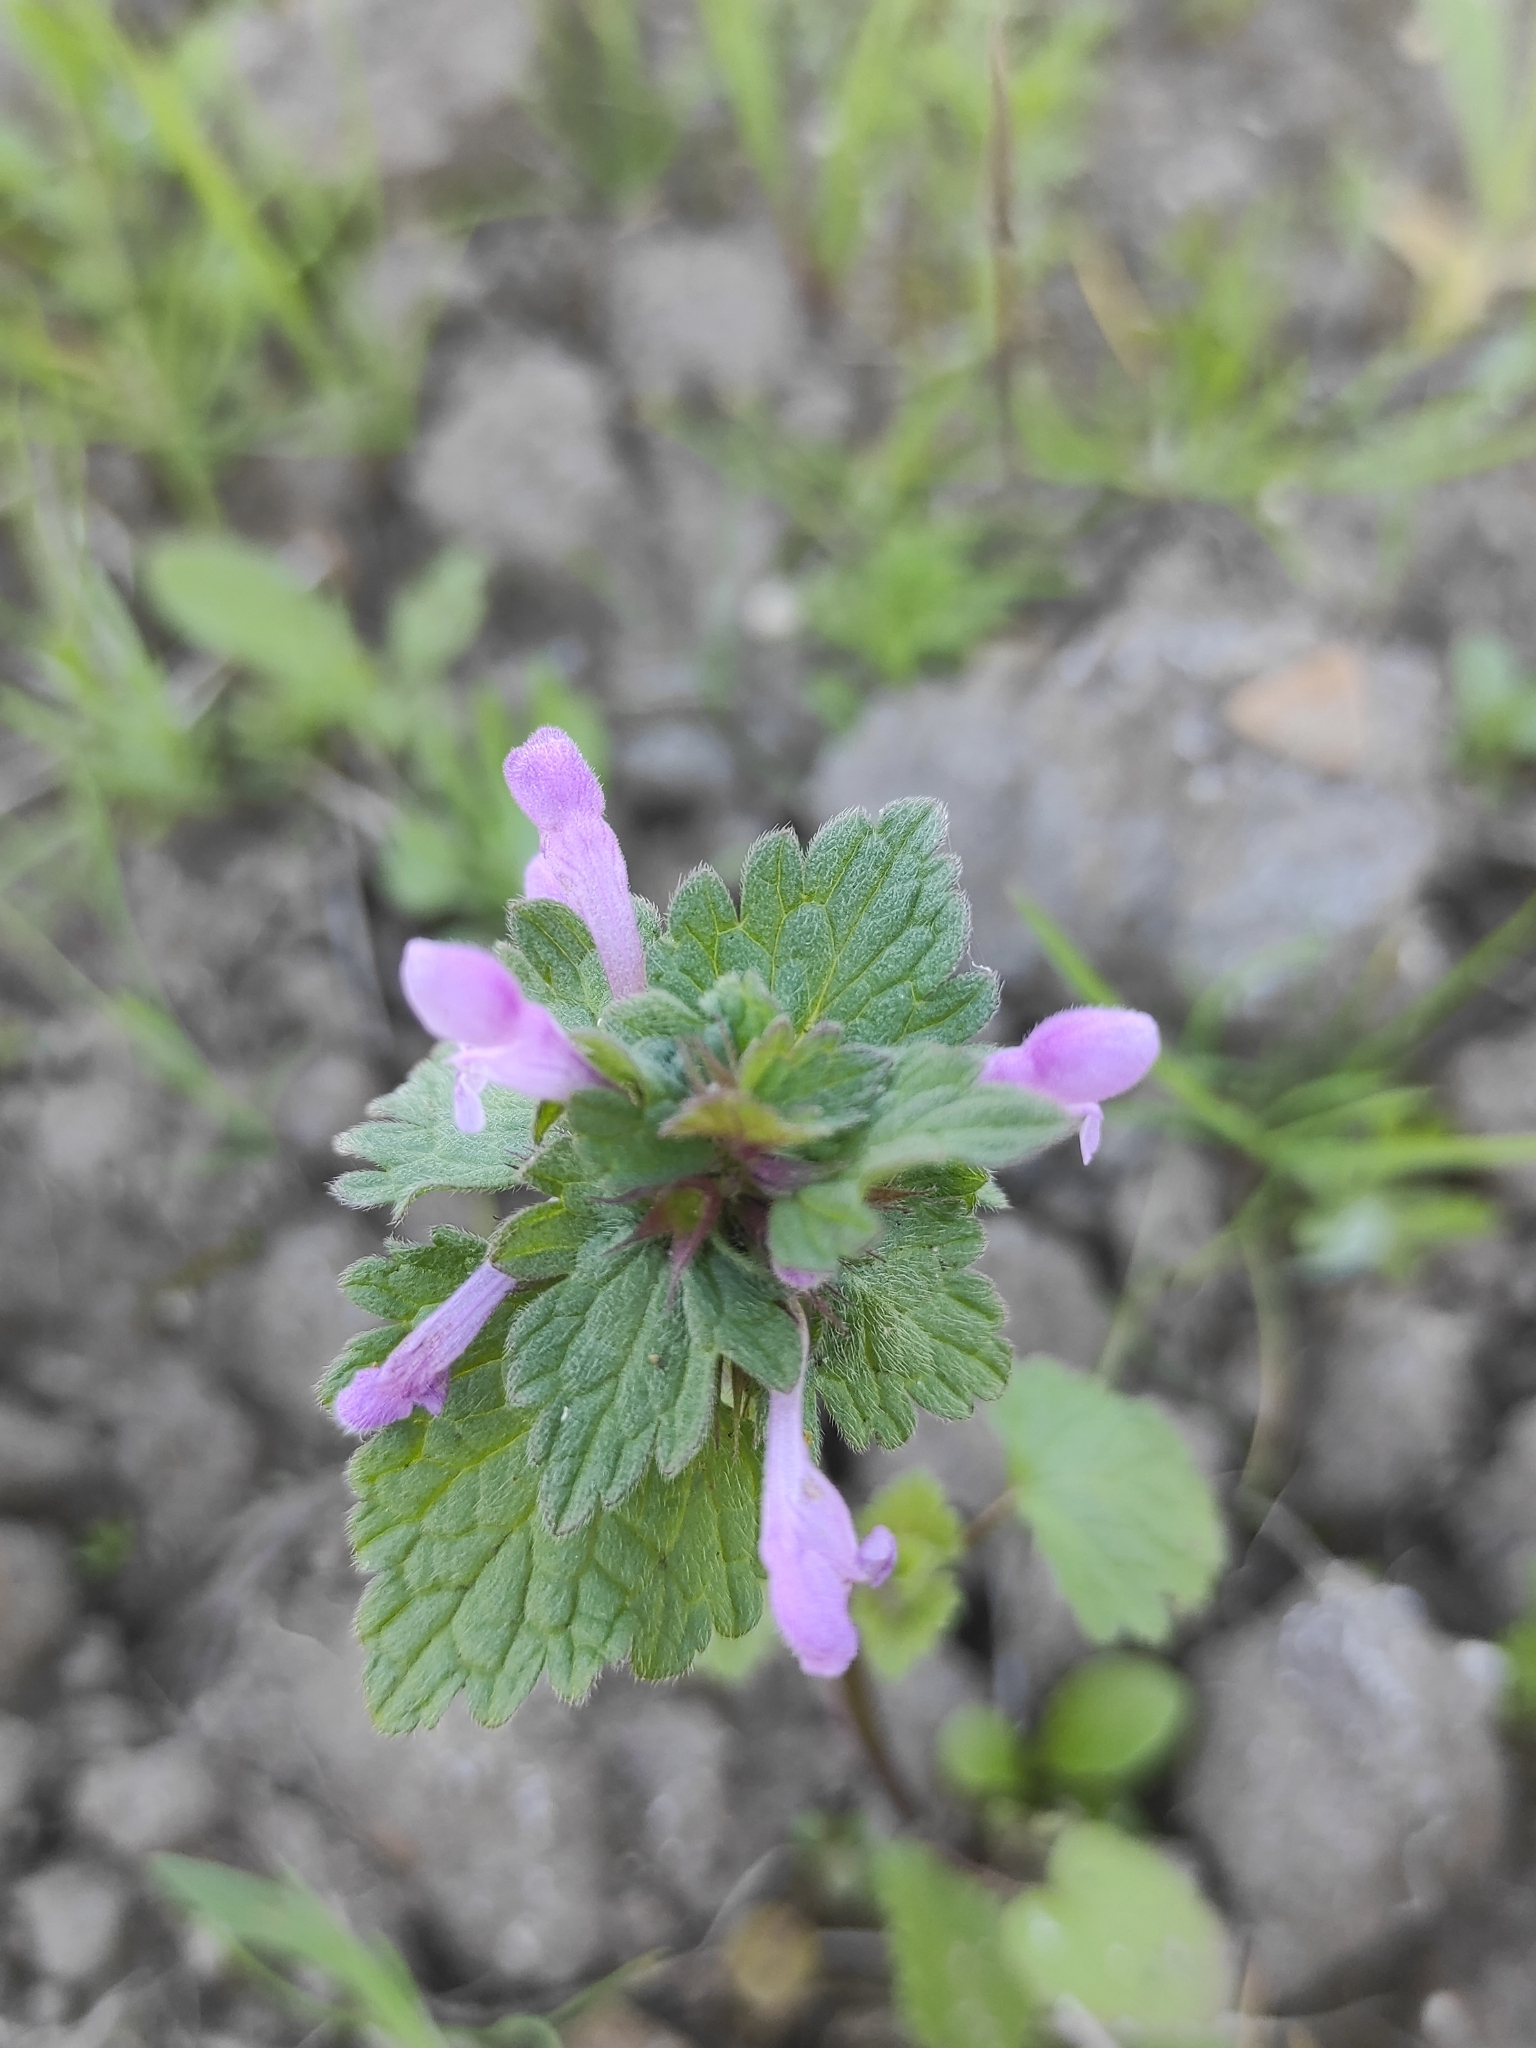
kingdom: Plantae
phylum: Tracheophyta
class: Magnoliopsida
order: Lamiales
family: Lamiaceae
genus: Lamium
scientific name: Lamium purpureum
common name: Red dead-nettle
